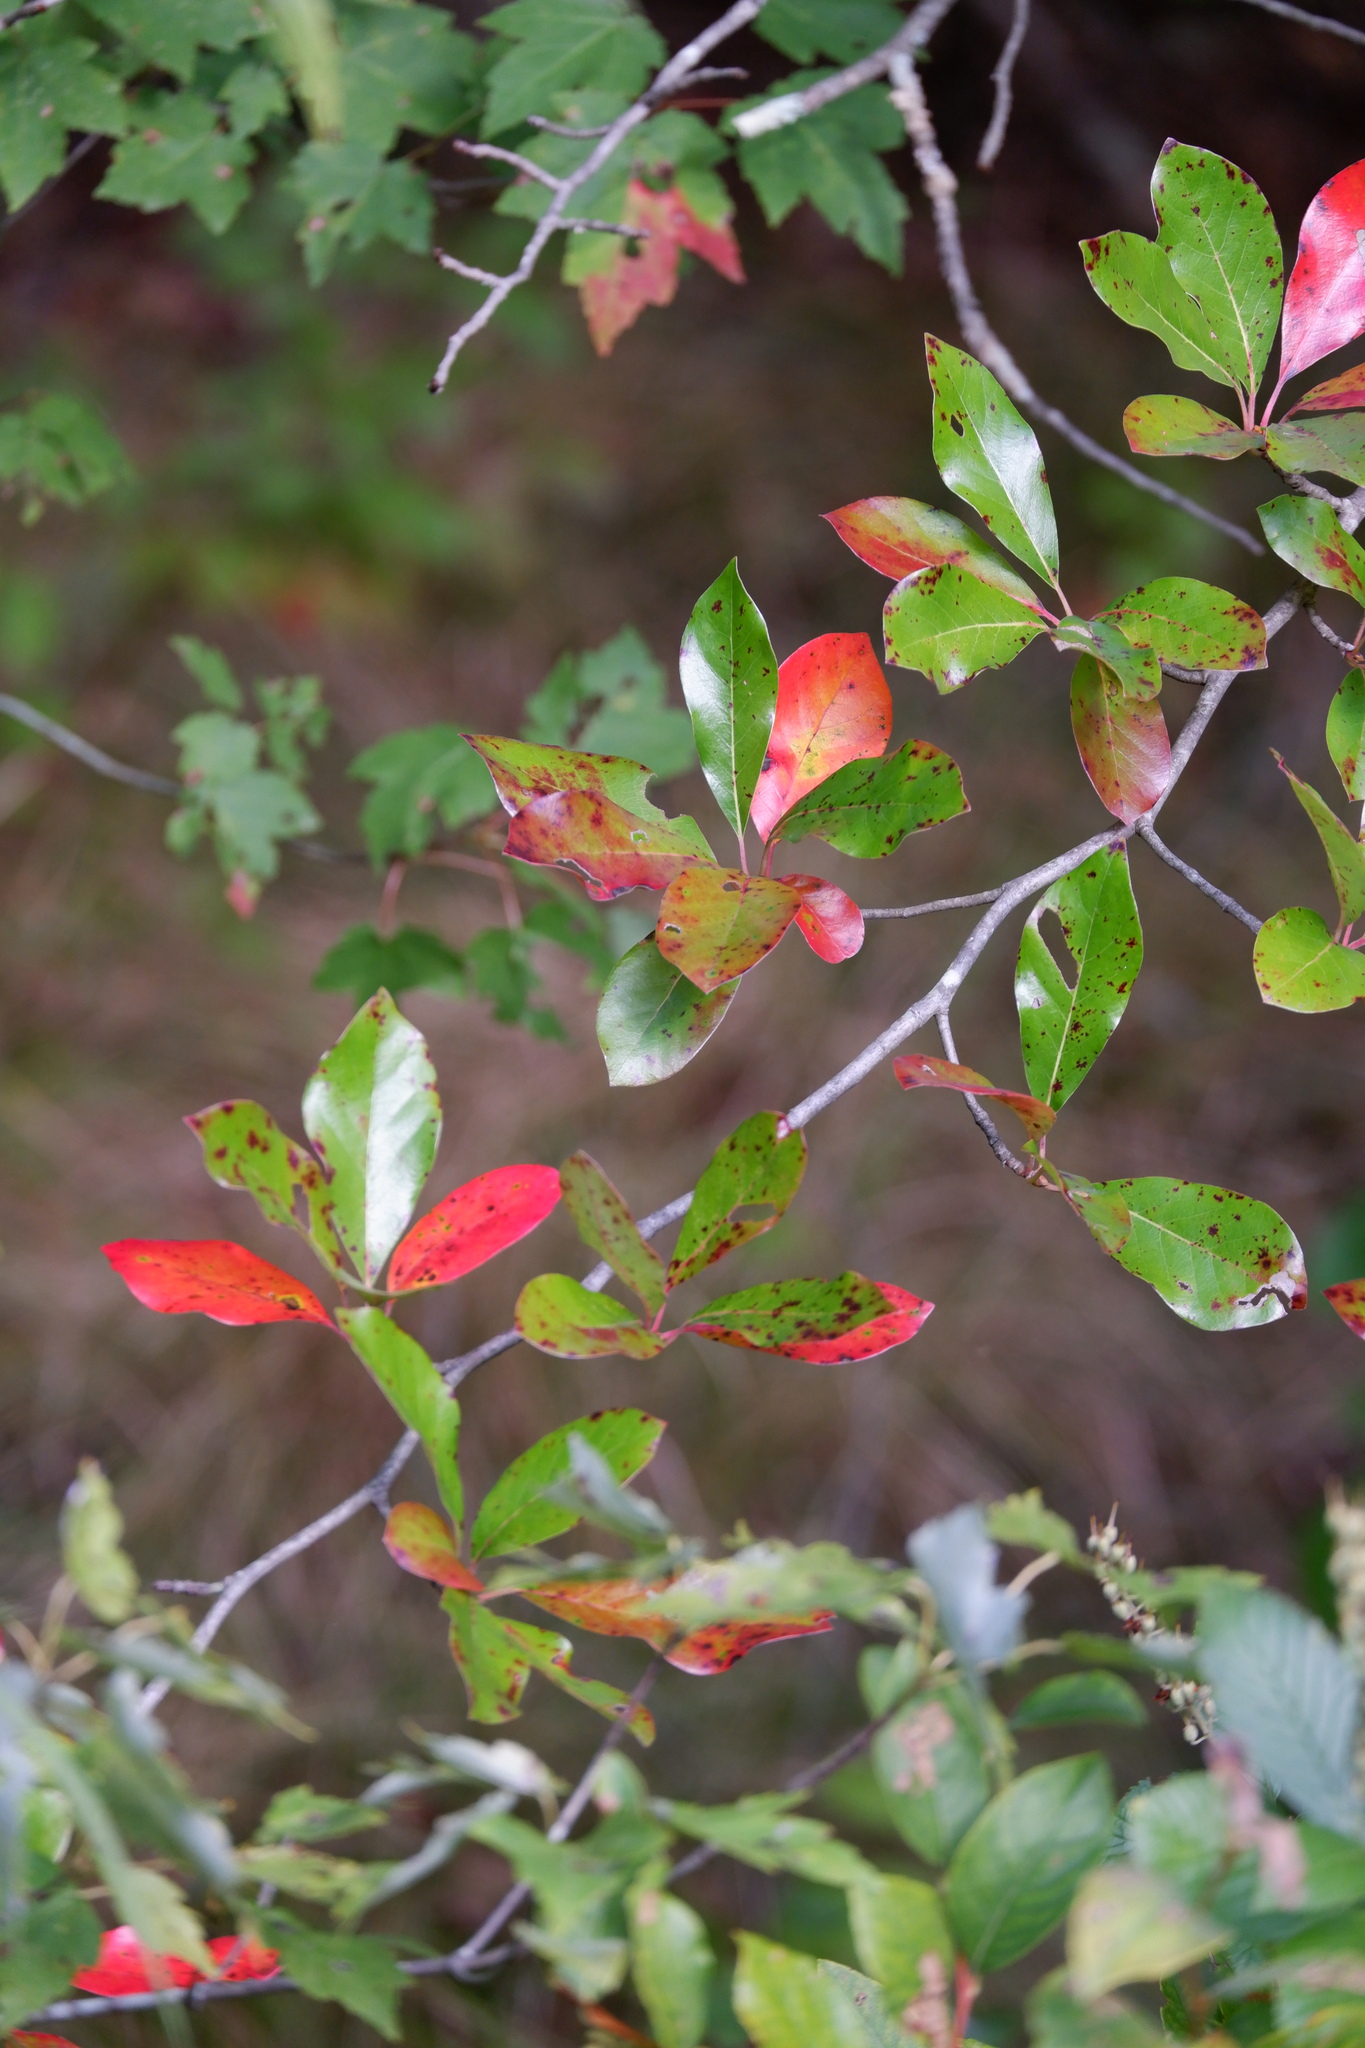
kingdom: Plantae
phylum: Tracheophyta
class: Magnoliopsida
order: Cornales
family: Nyssaceae
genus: Nyssa
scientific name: Nyssa sylvatica
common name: Black tupelo
